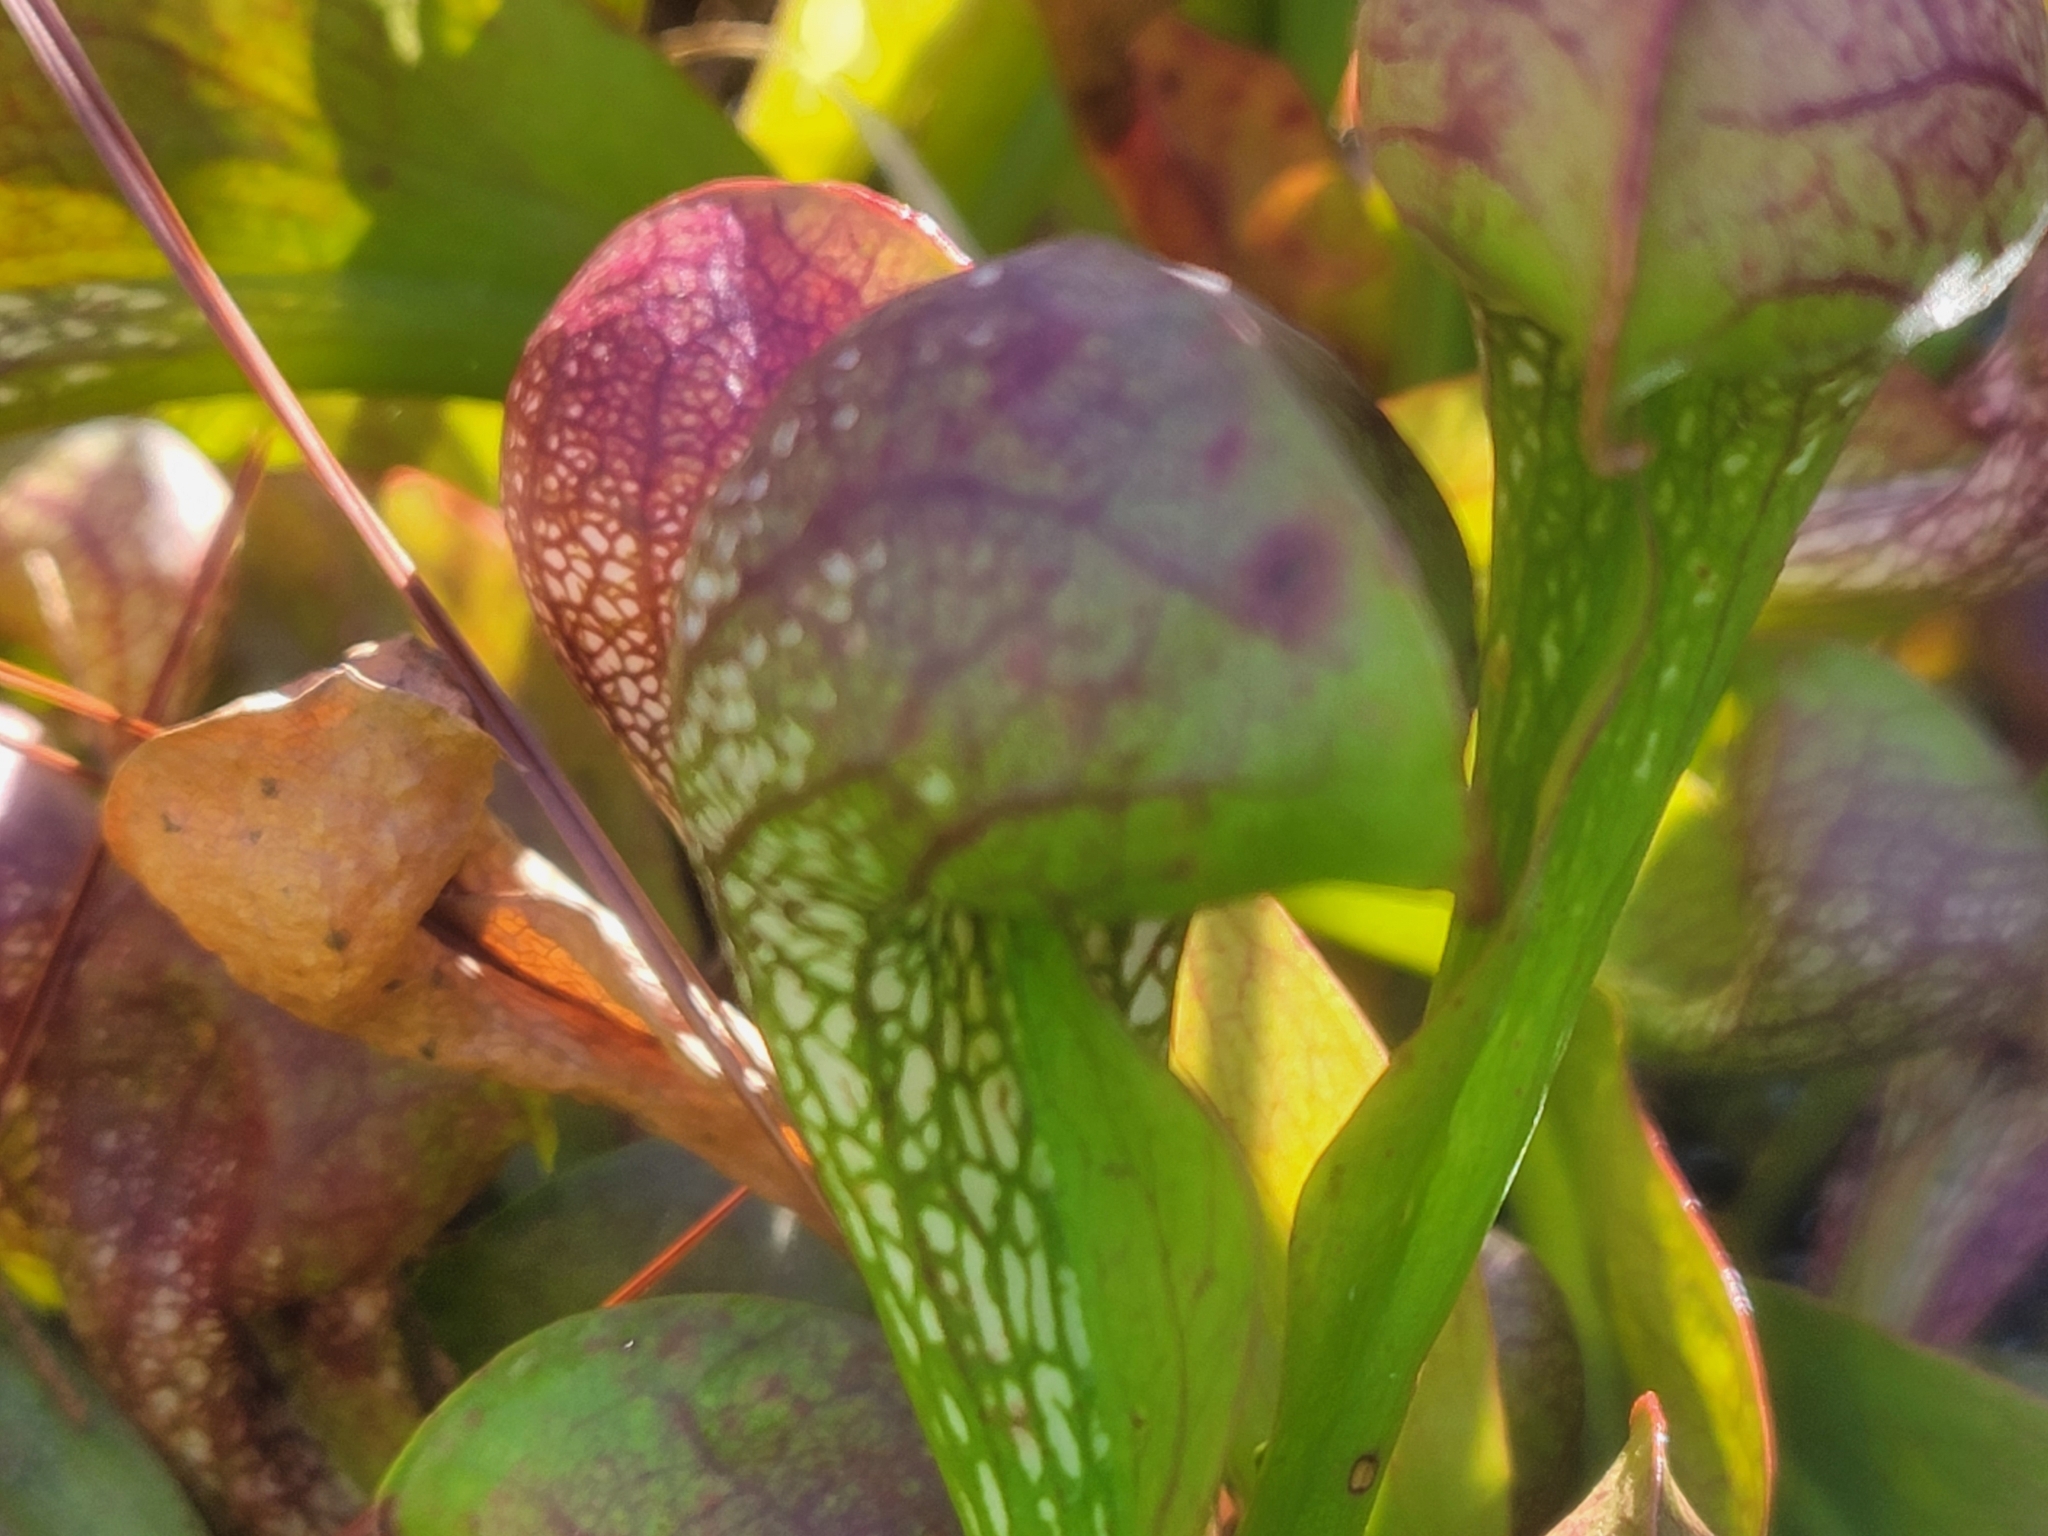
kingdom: Plantae
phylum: Tracheophyta
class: Magnoliopsida
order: Ericales
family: Sarraceniaceae
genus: Sarracenia
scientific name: Sarracenia psittacina
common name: Parrot pitcherplant
